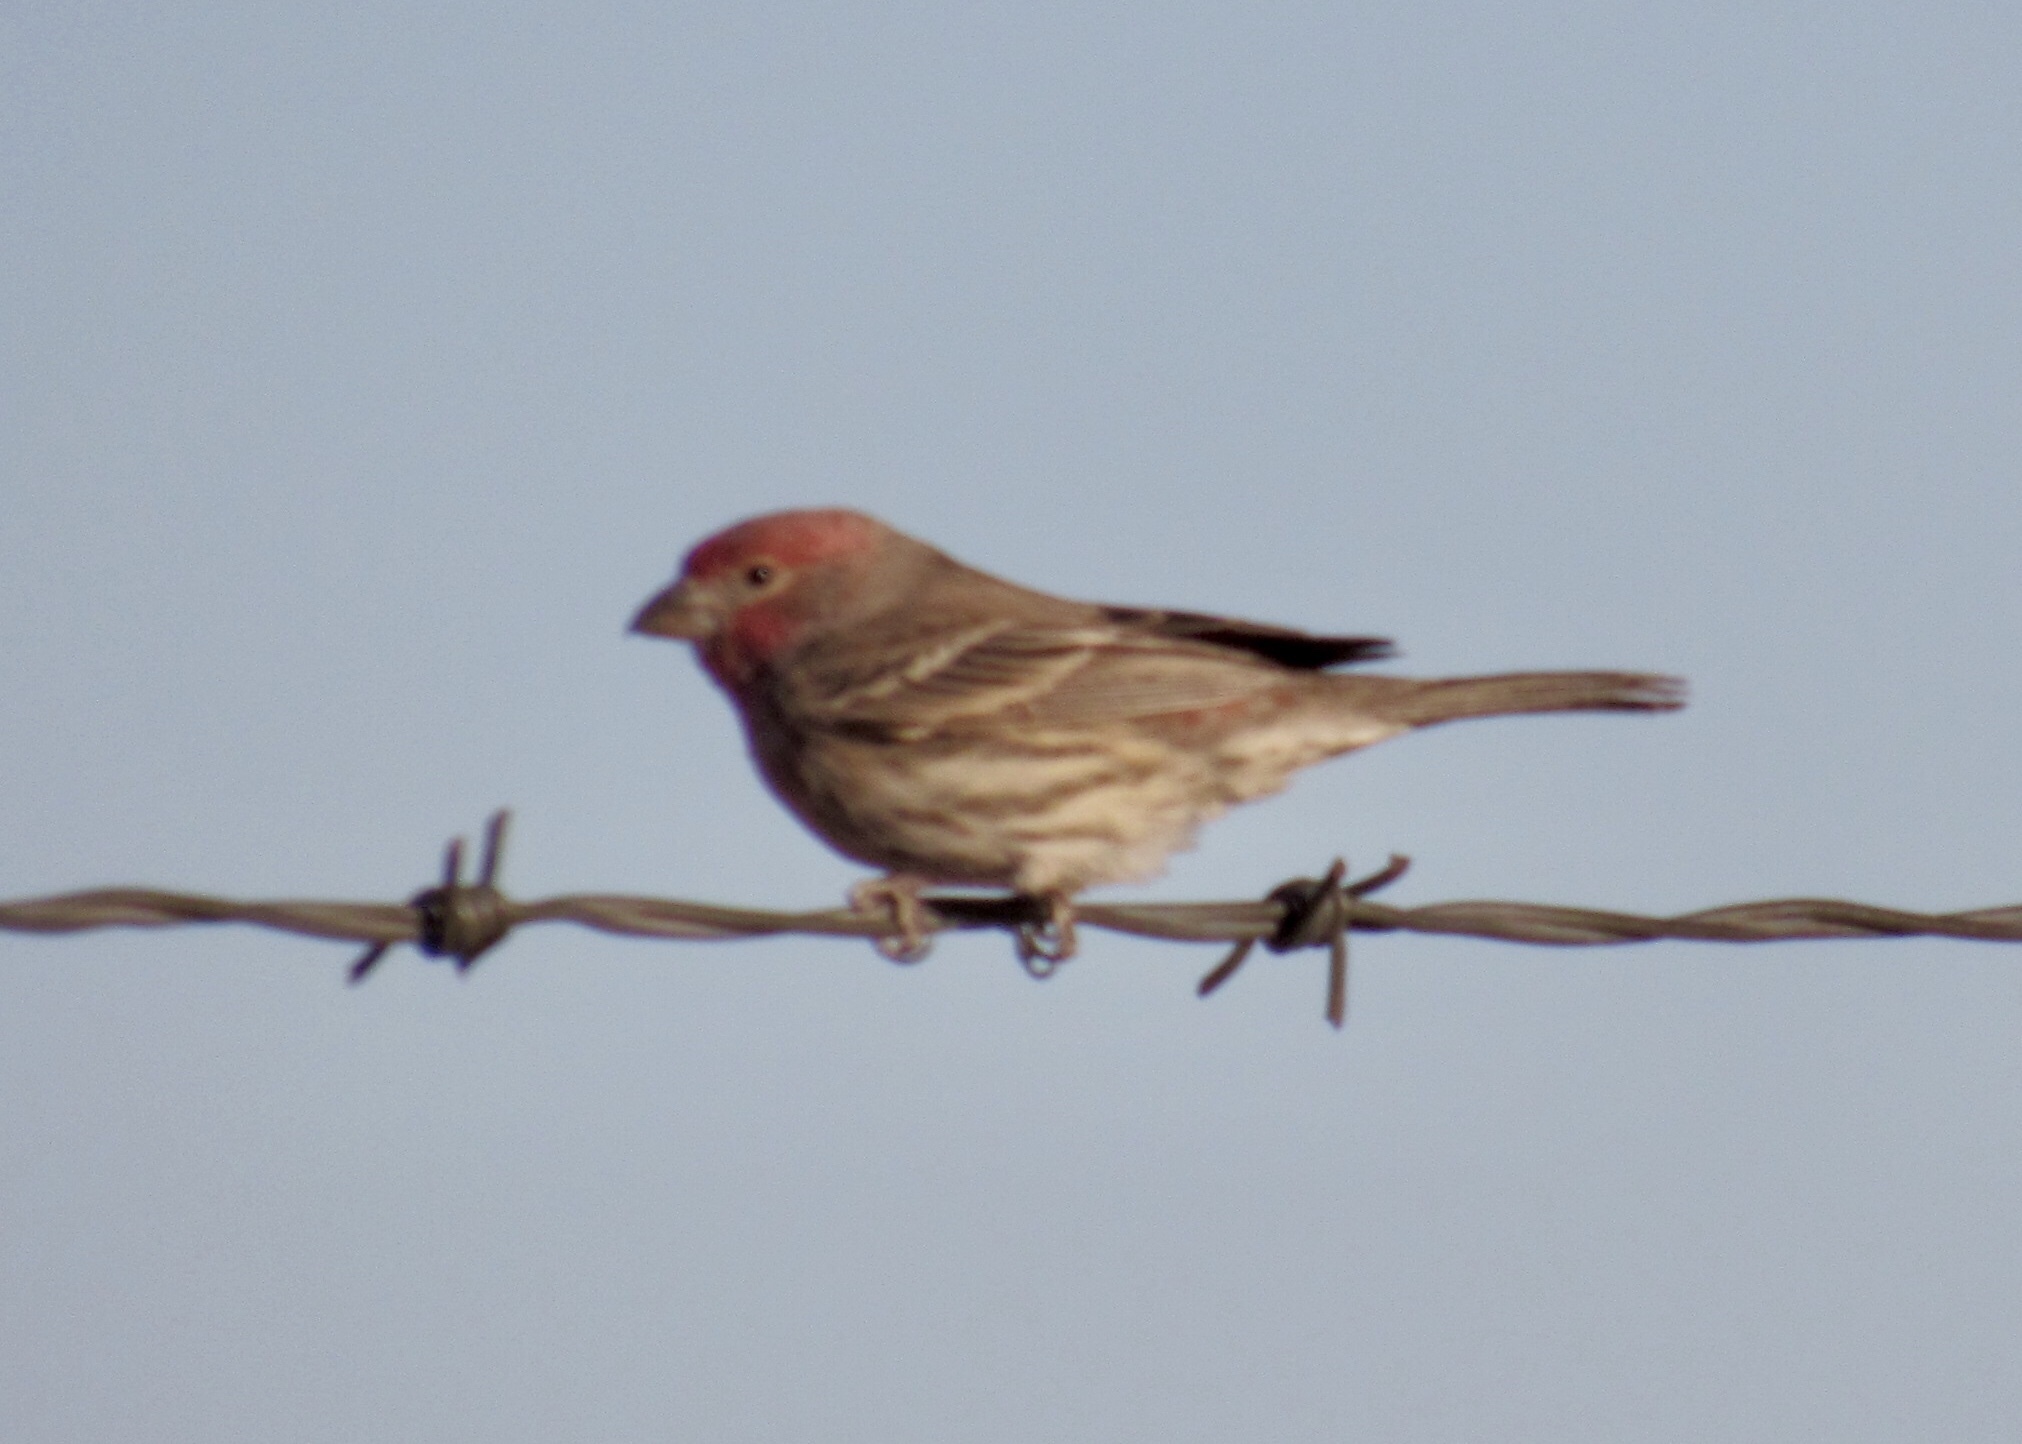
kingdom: Animalia
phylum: Chordata
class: Aves
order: Passeriformes
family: Fringillidae
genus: Haemorhous
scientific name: Haemorhous mexicanus
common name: House finch
